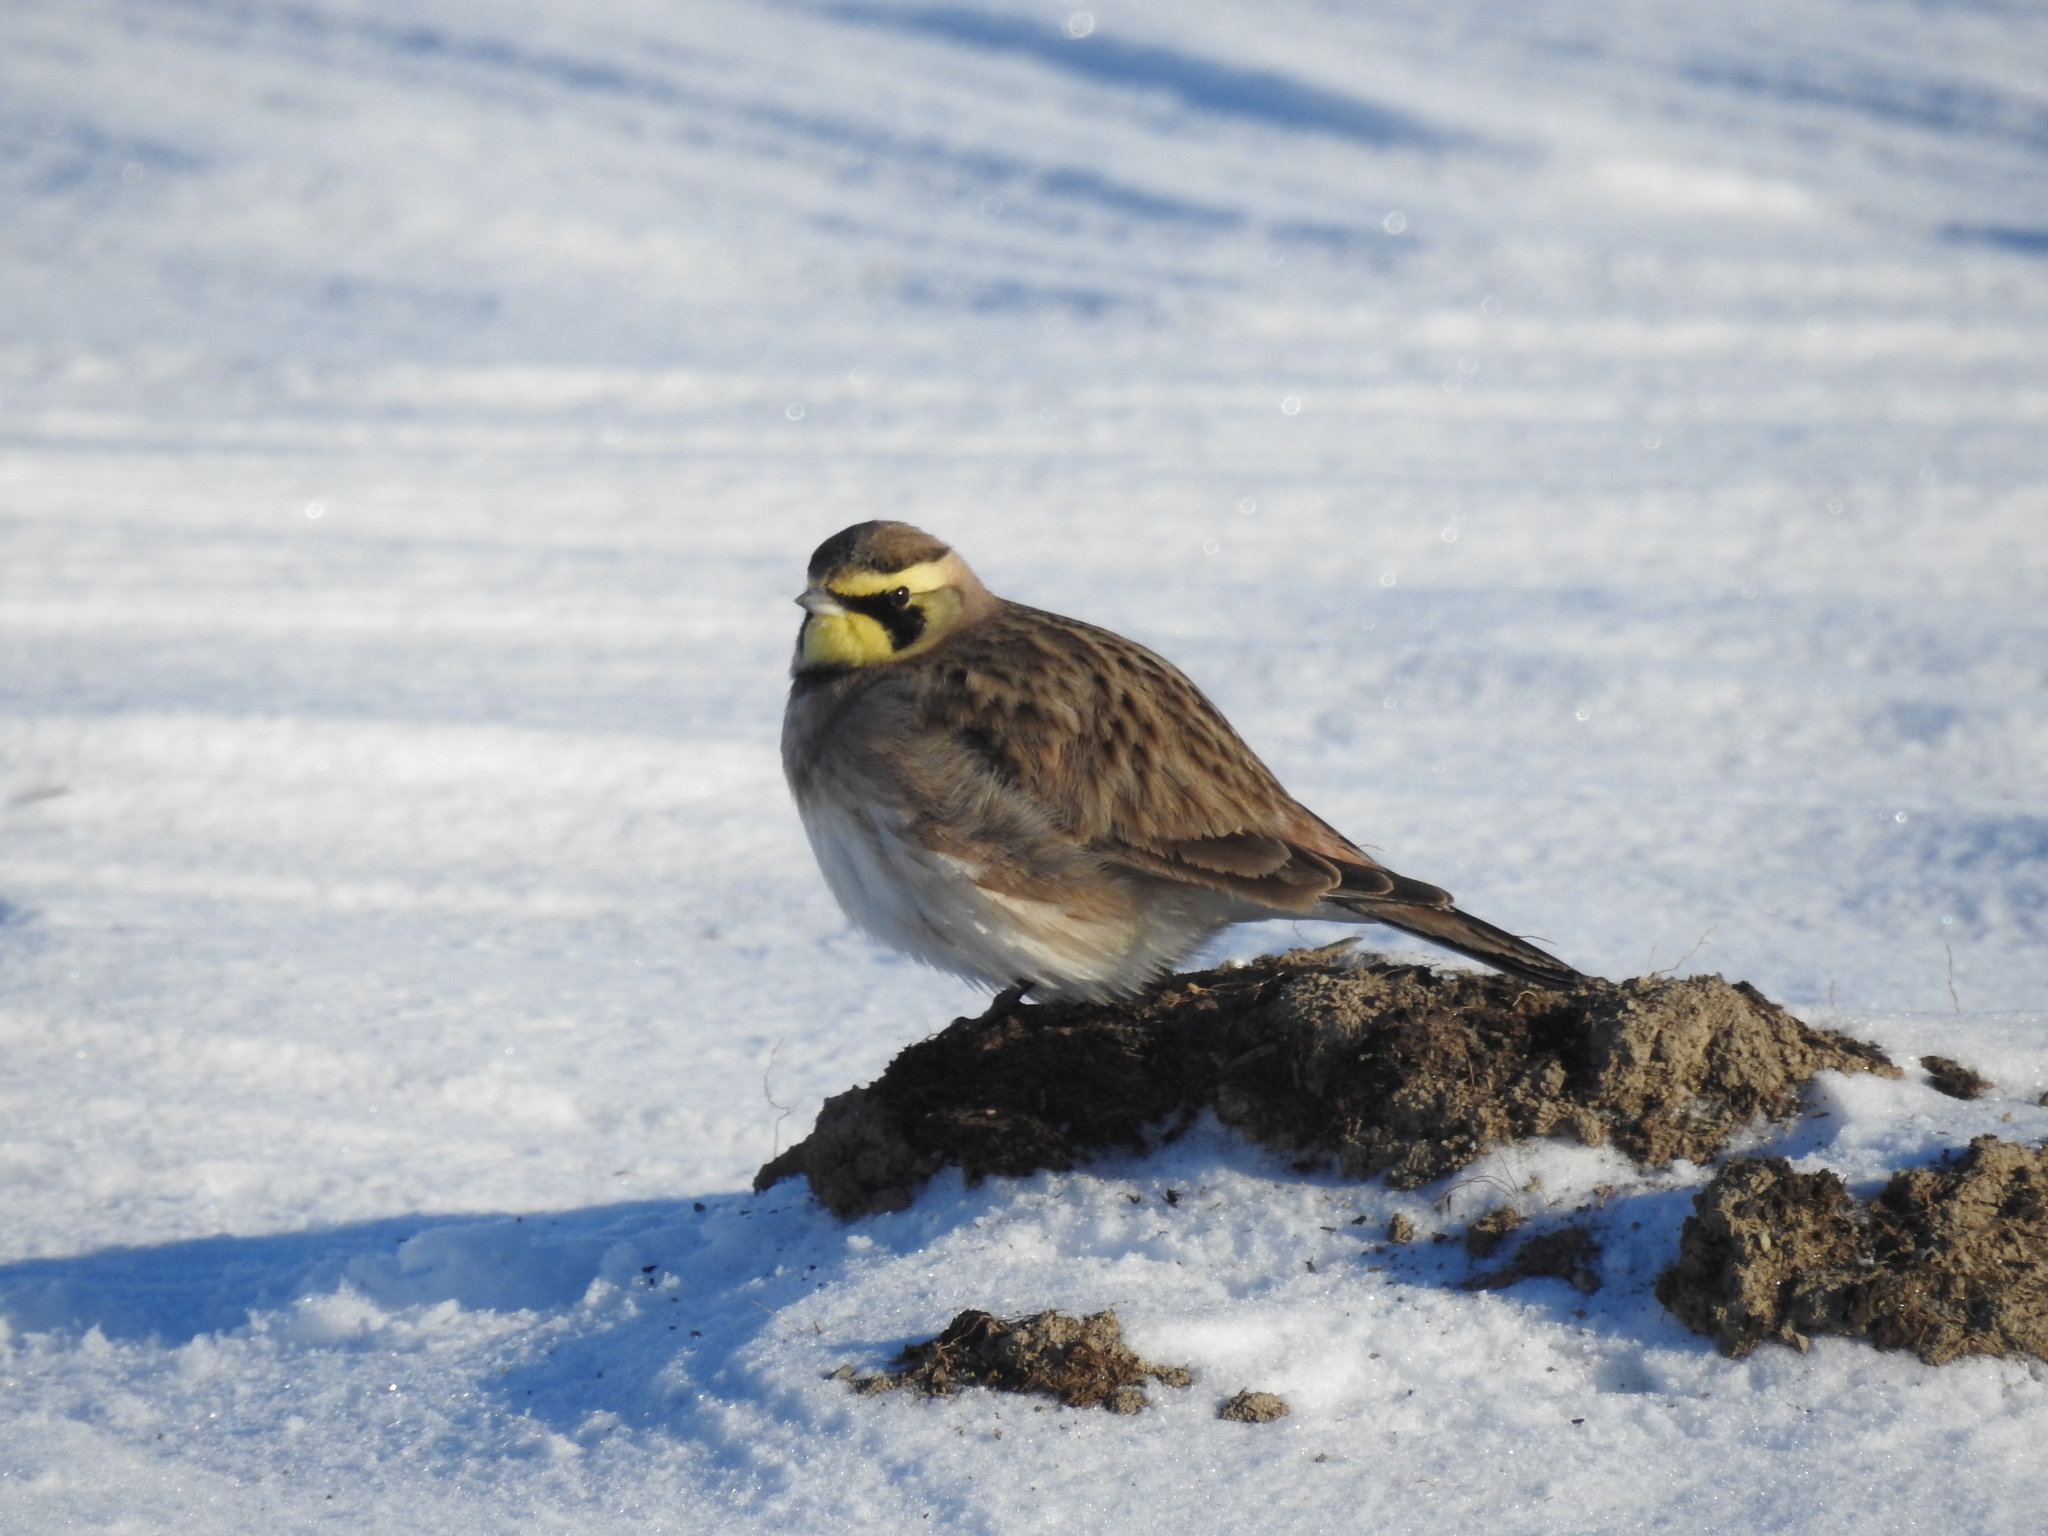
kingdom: Animalia
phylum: Chordata
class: Aves
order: Passeriformes
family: Alaudidae
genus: Eremophila
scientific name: Eremophila alpestris
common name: Horned lark
